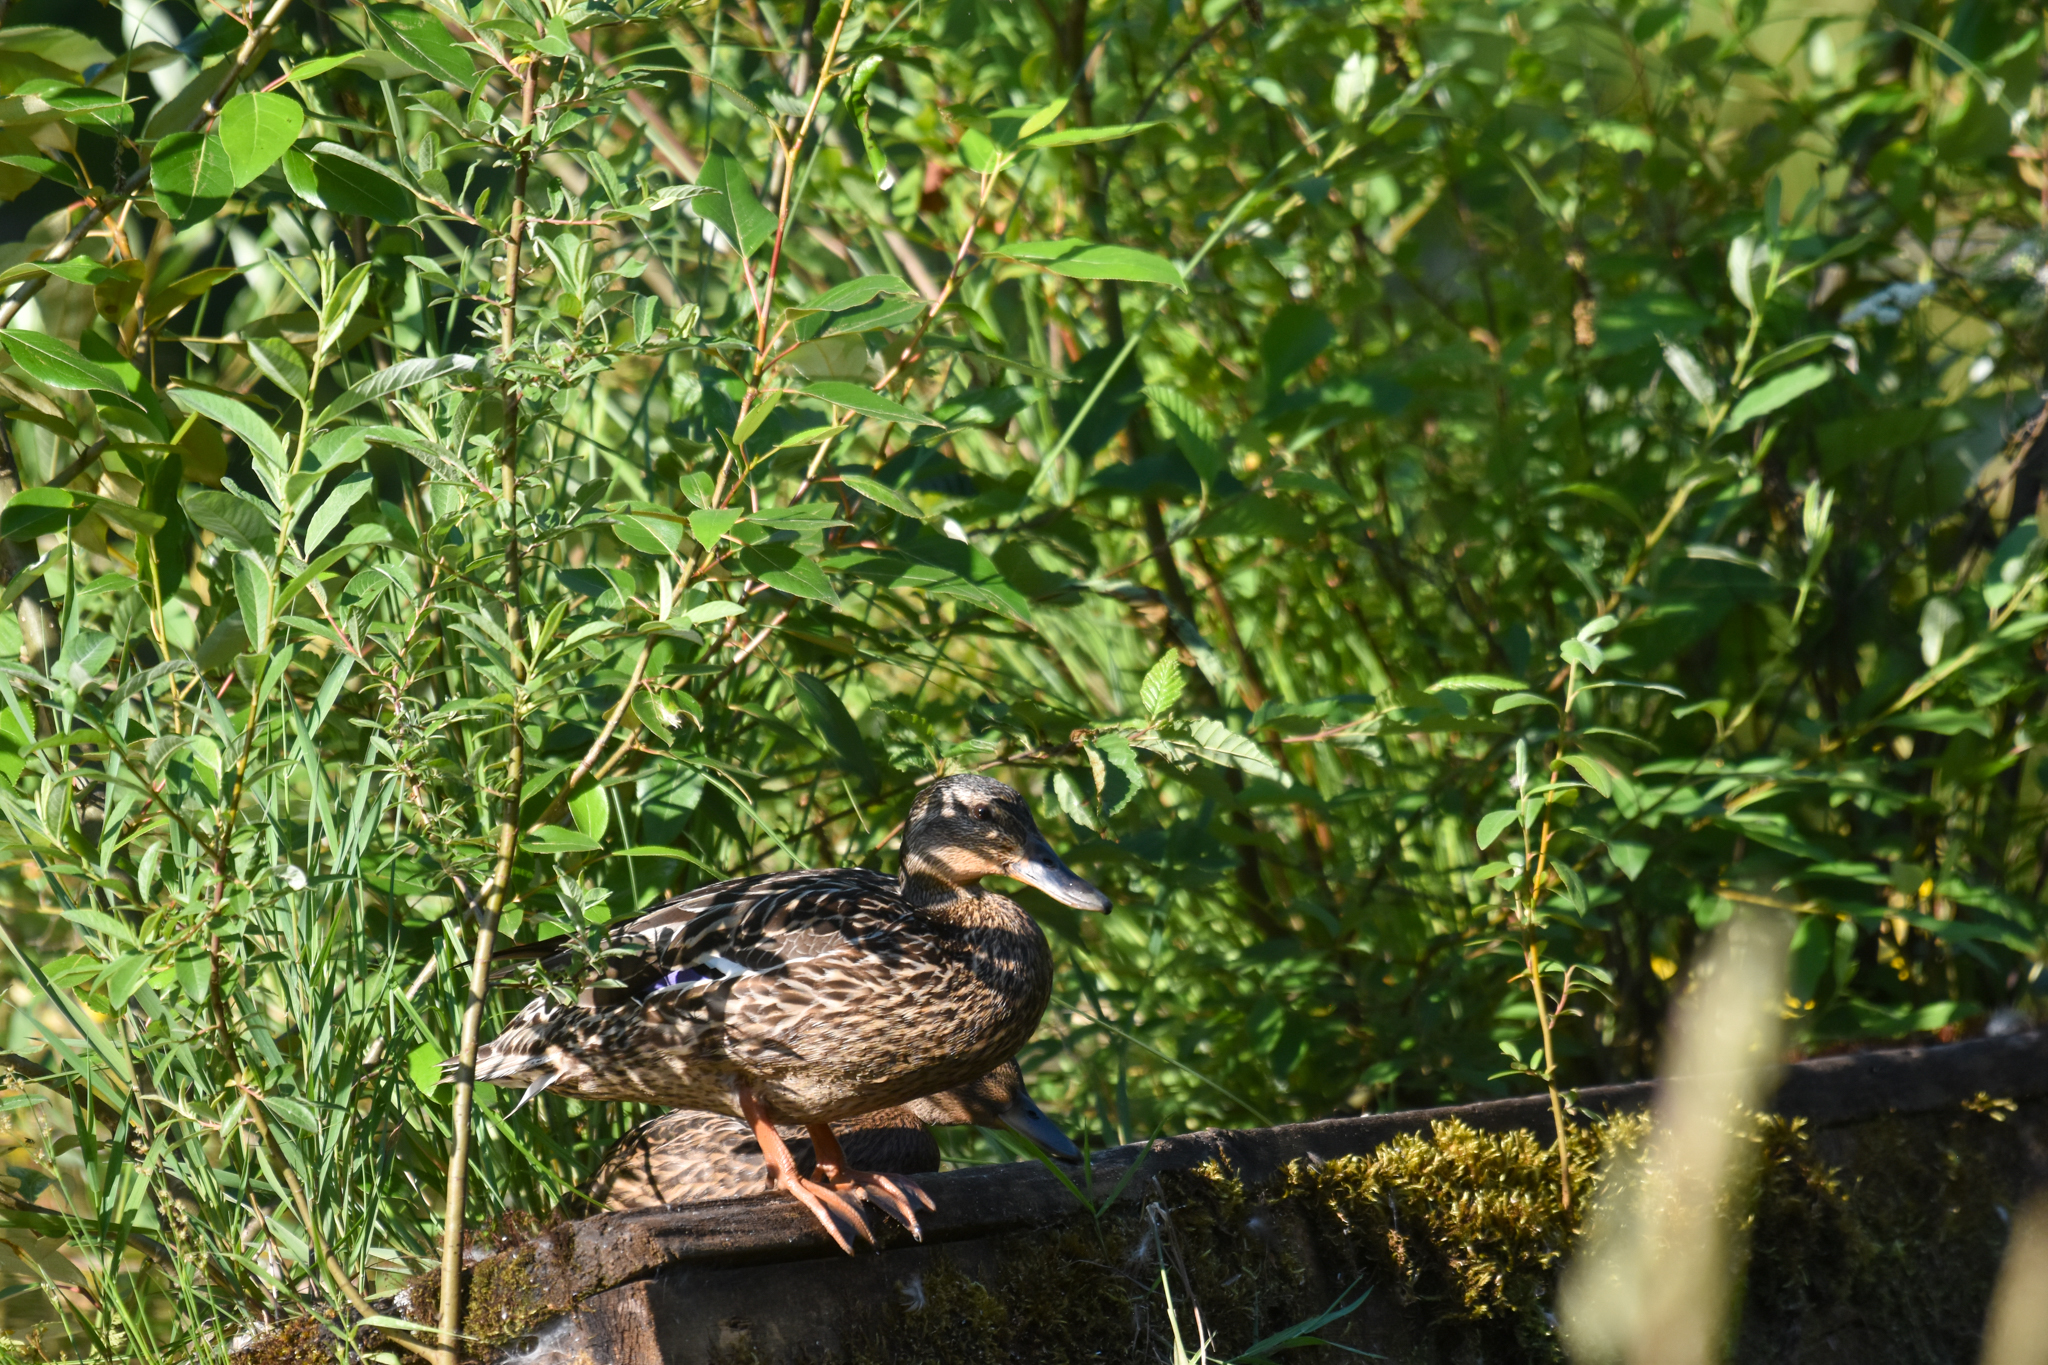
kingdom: Animalia
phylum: Chordata
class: Aves
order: Anseriformes
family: Anatidae
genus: Anas
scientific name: Anas platyrhynchos
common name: Mallard
